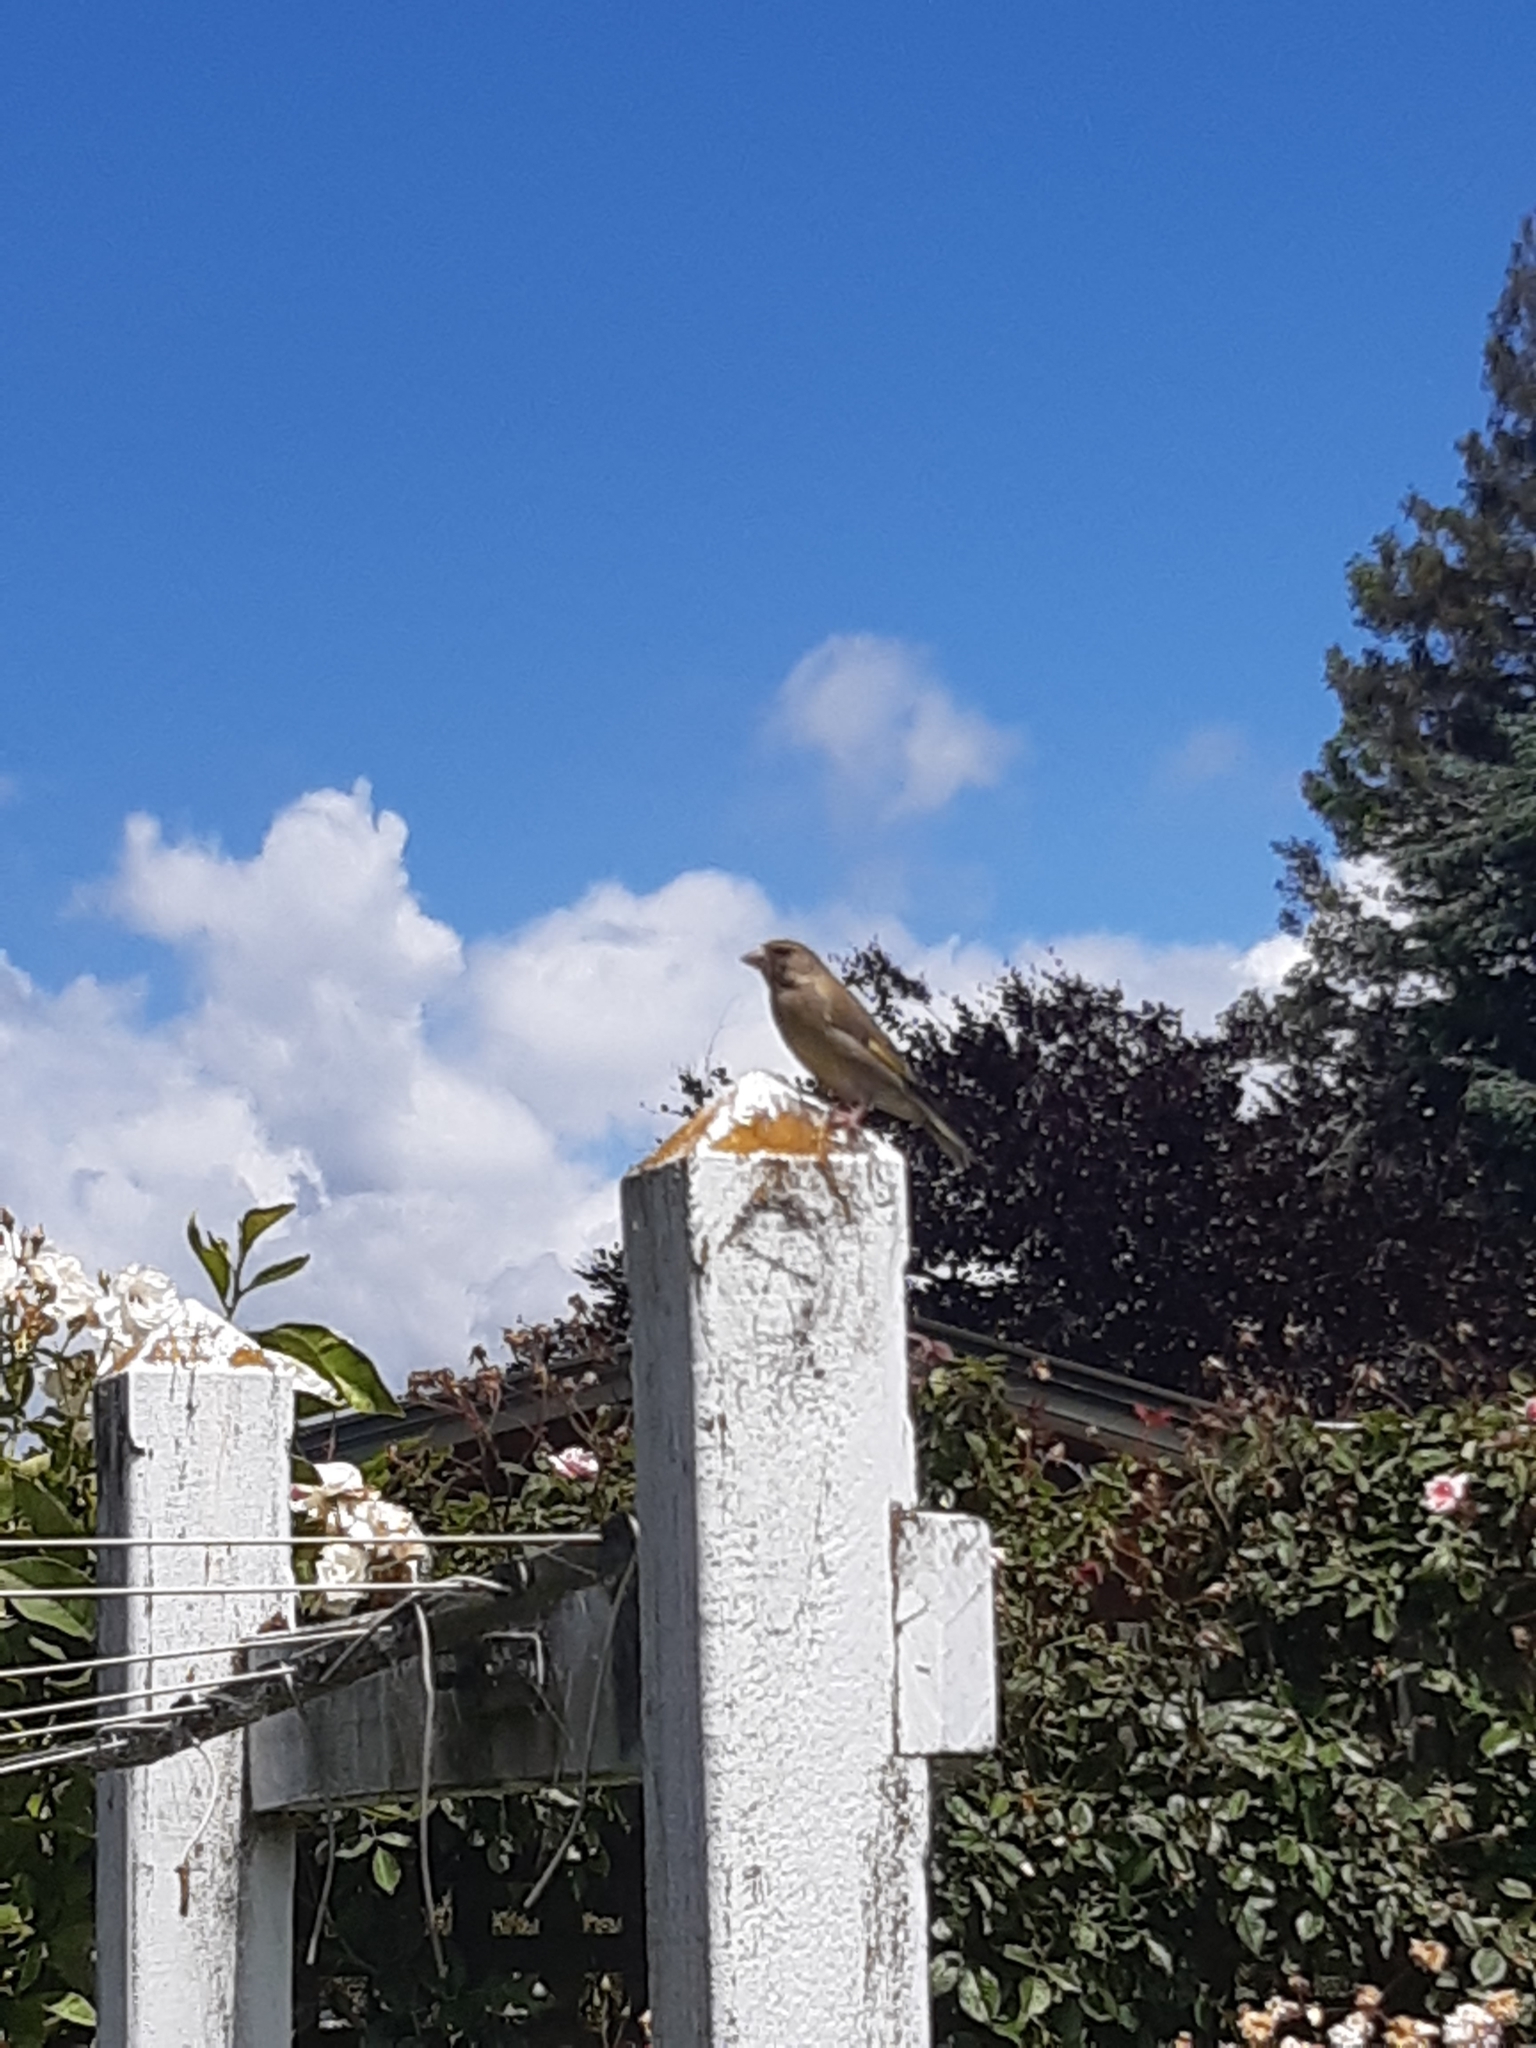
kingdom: Plantae
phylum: Tracheophyta
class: Liliopsida
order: Poales
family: Poaceae
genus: Chloris
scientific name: Chloris chloris
